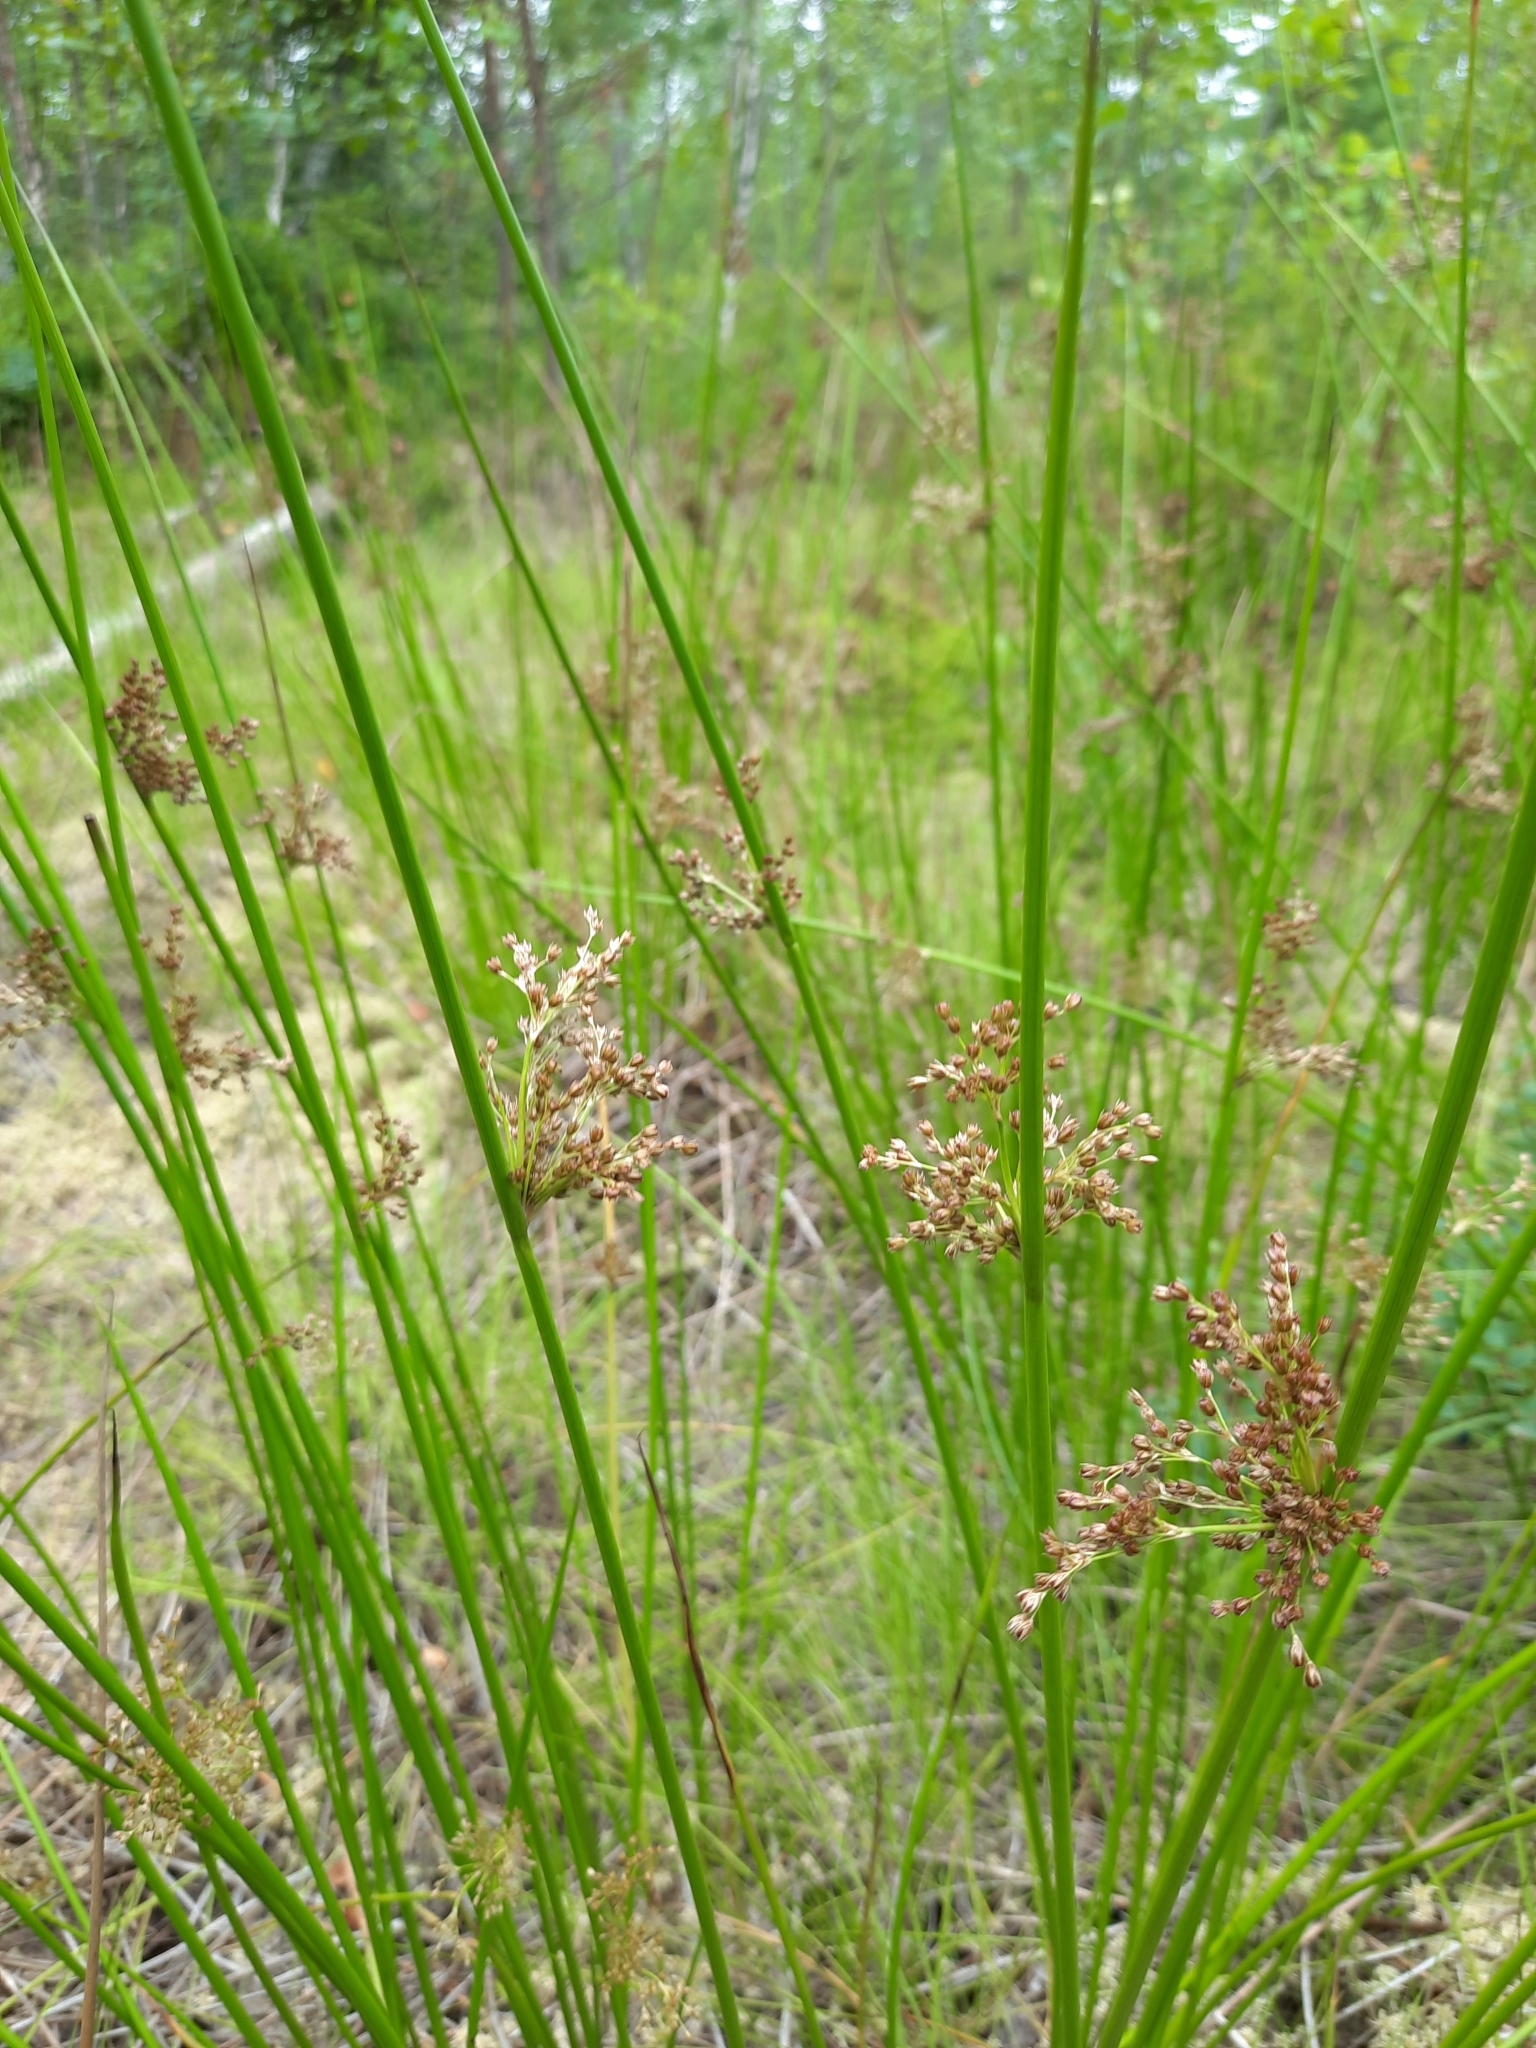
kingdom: Plantae
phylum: Tracheophyta
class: Liliopsida
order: Poales
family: Juncaceae
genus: Juncus
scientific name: Juncus effusus
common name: Soft rush
